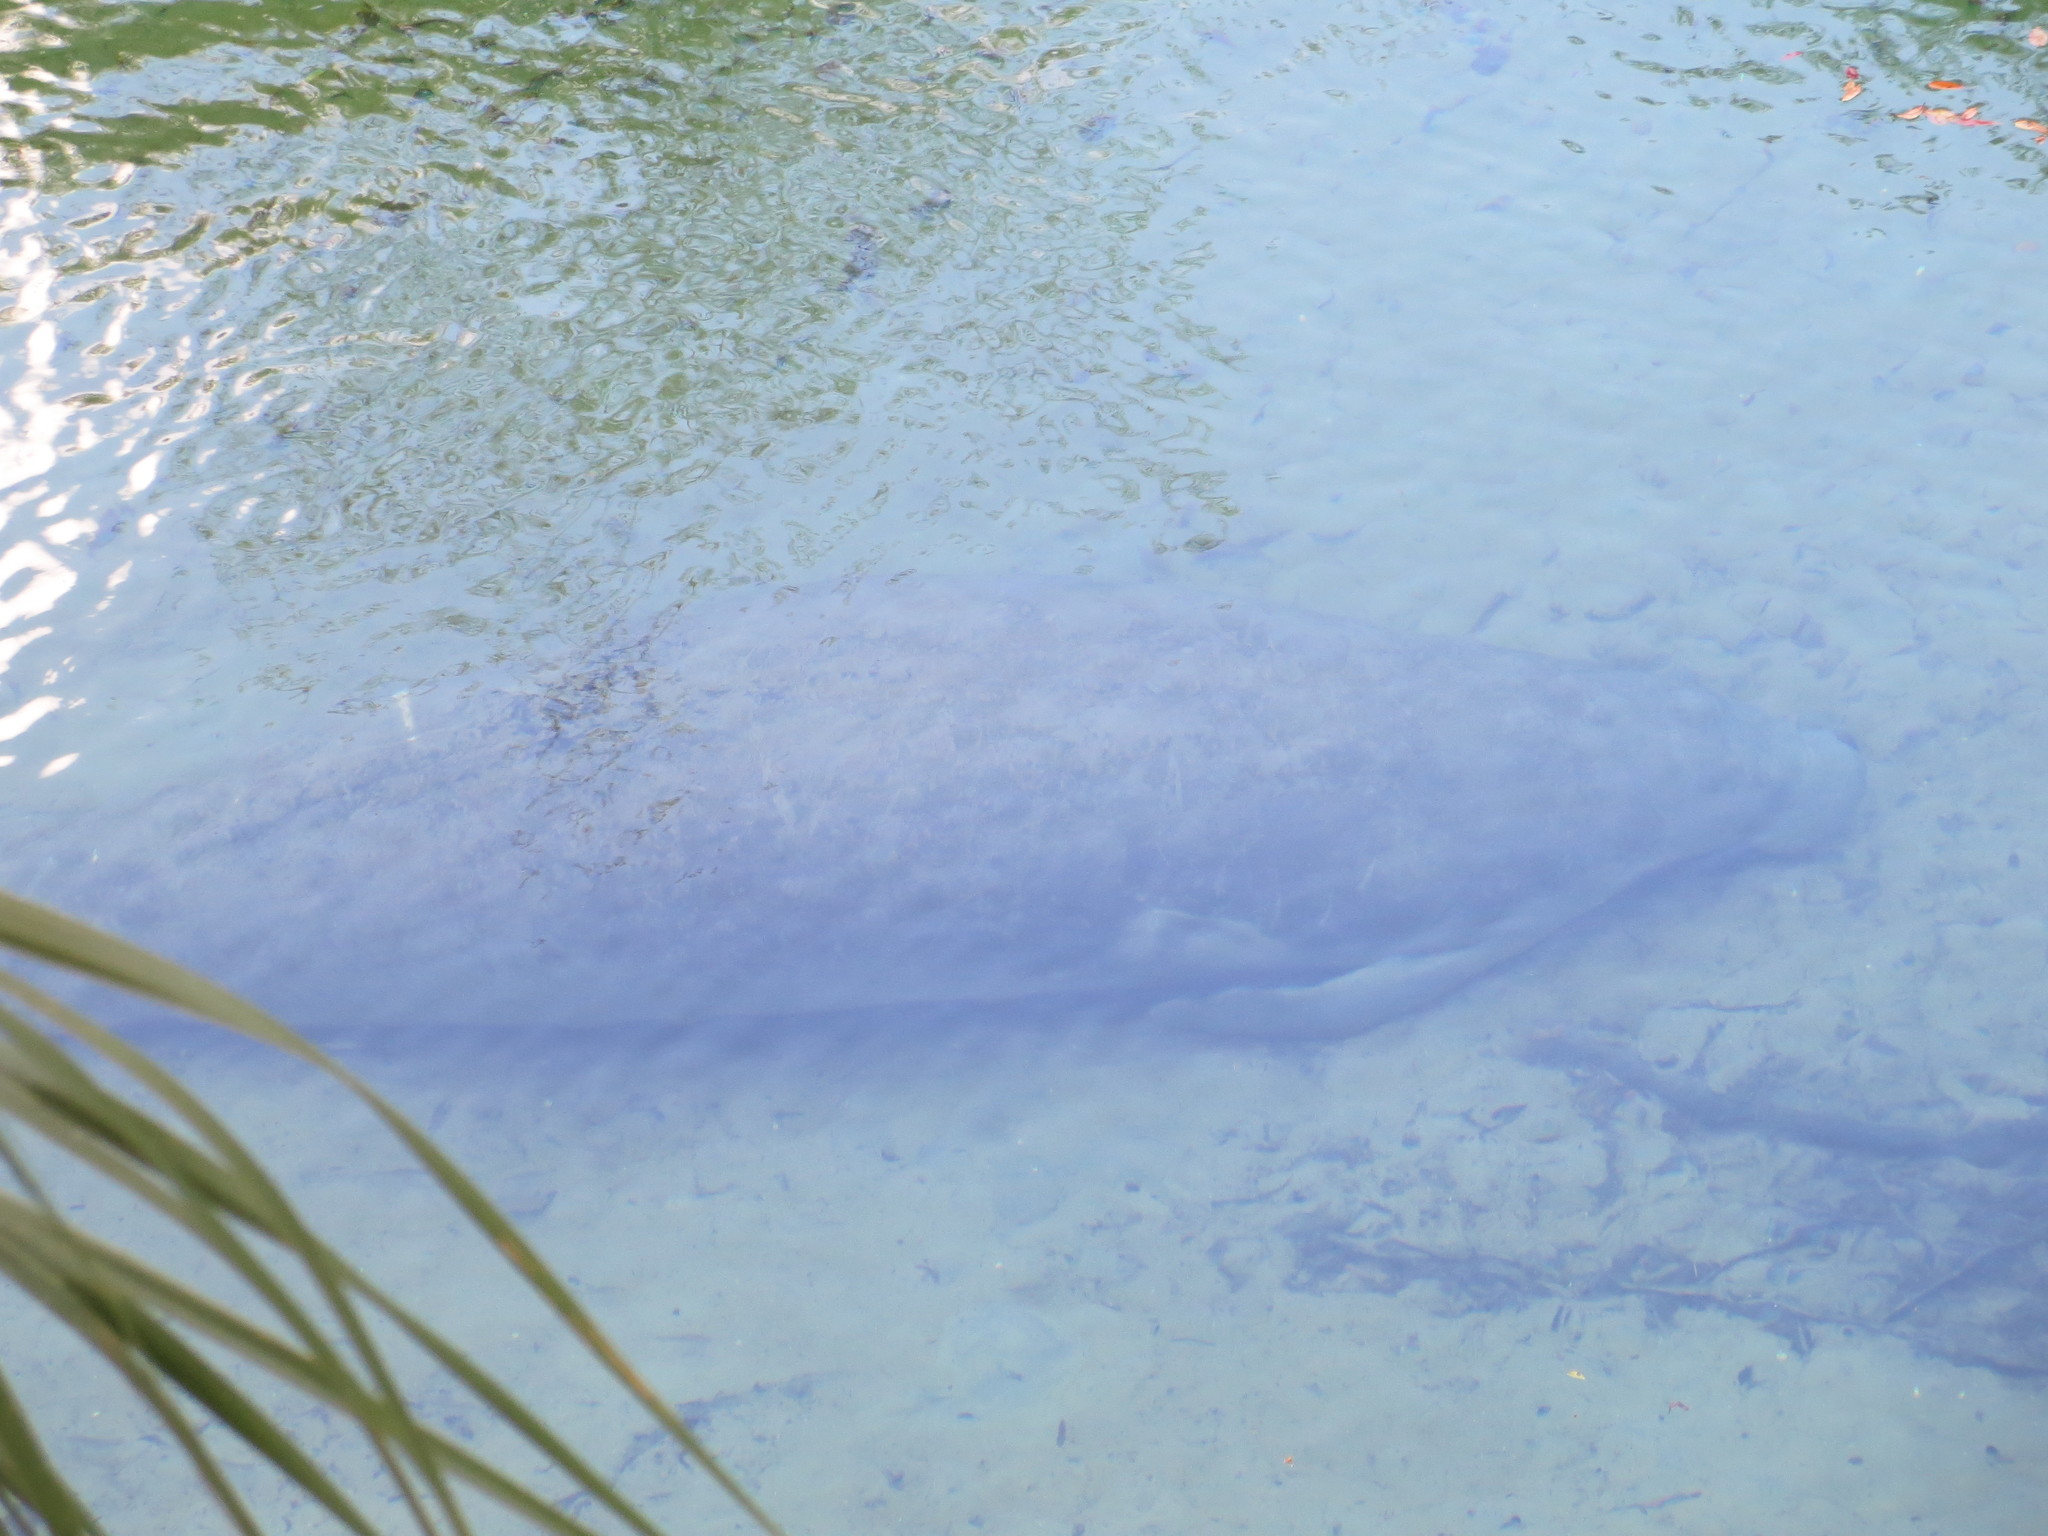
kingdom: Animalia
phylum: Chordata
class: Mammalia
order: Sirenia
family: Trichechidae
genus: Trichechus
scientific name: Trichechus manatus
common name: West indian manatee
